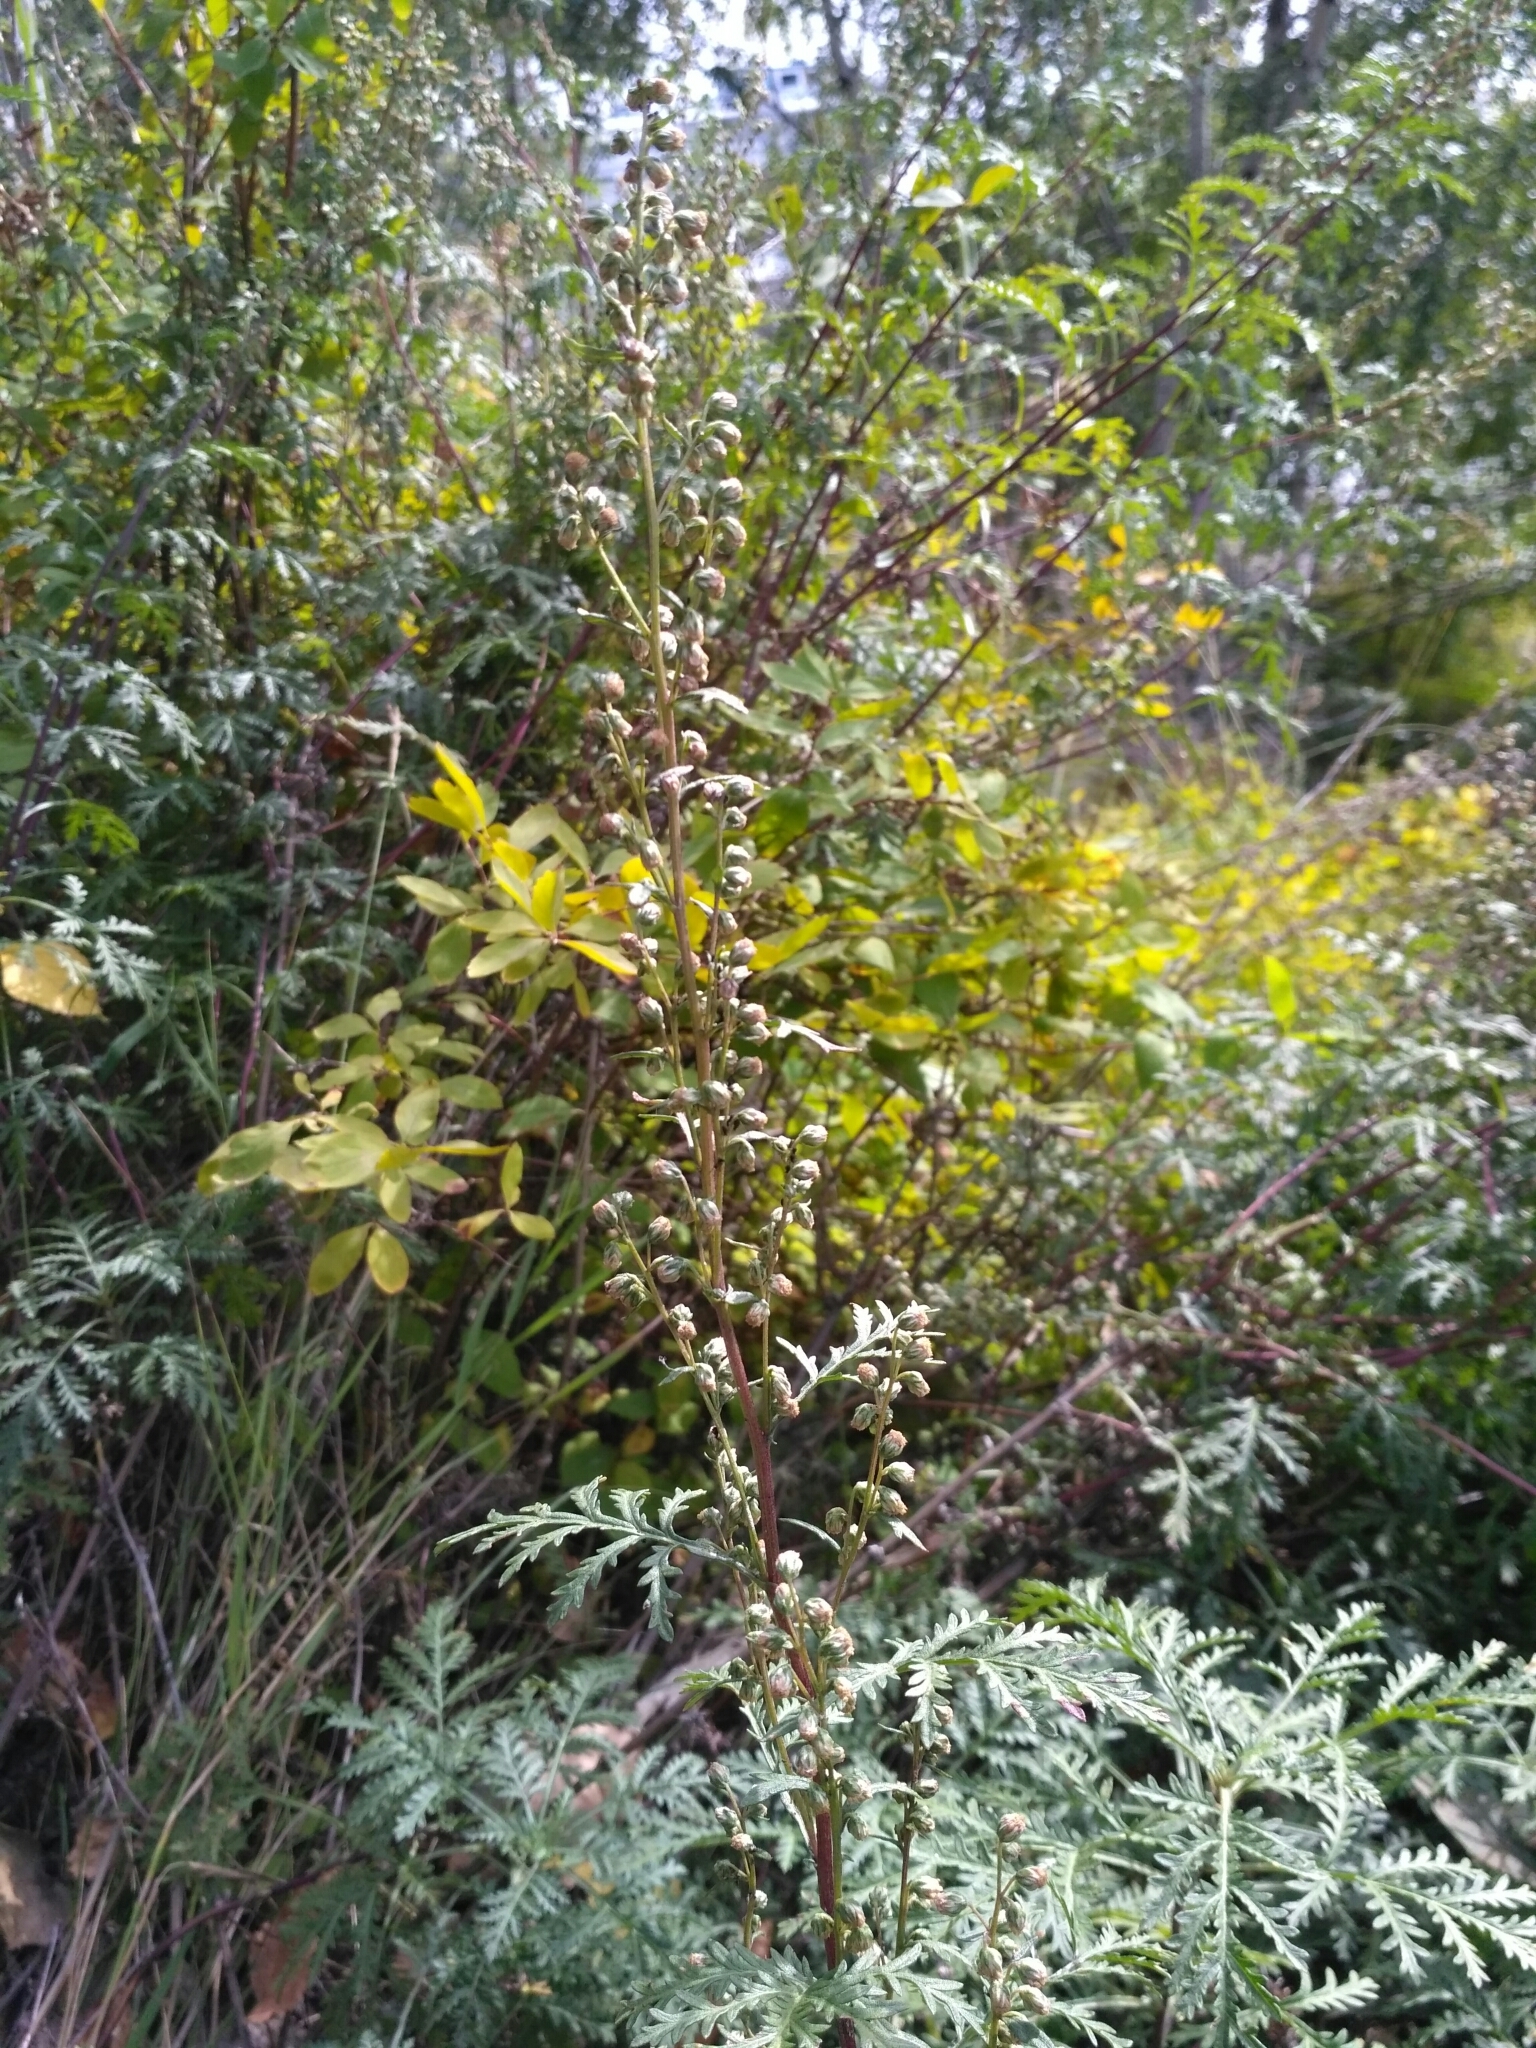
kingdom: Plantae
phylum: Tracheophyta
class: Magnoliopsida
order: Asterales
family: Asteraceae
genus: Artemisia
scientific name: Artemisia gmelinii
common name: Gmelin's wormwood
